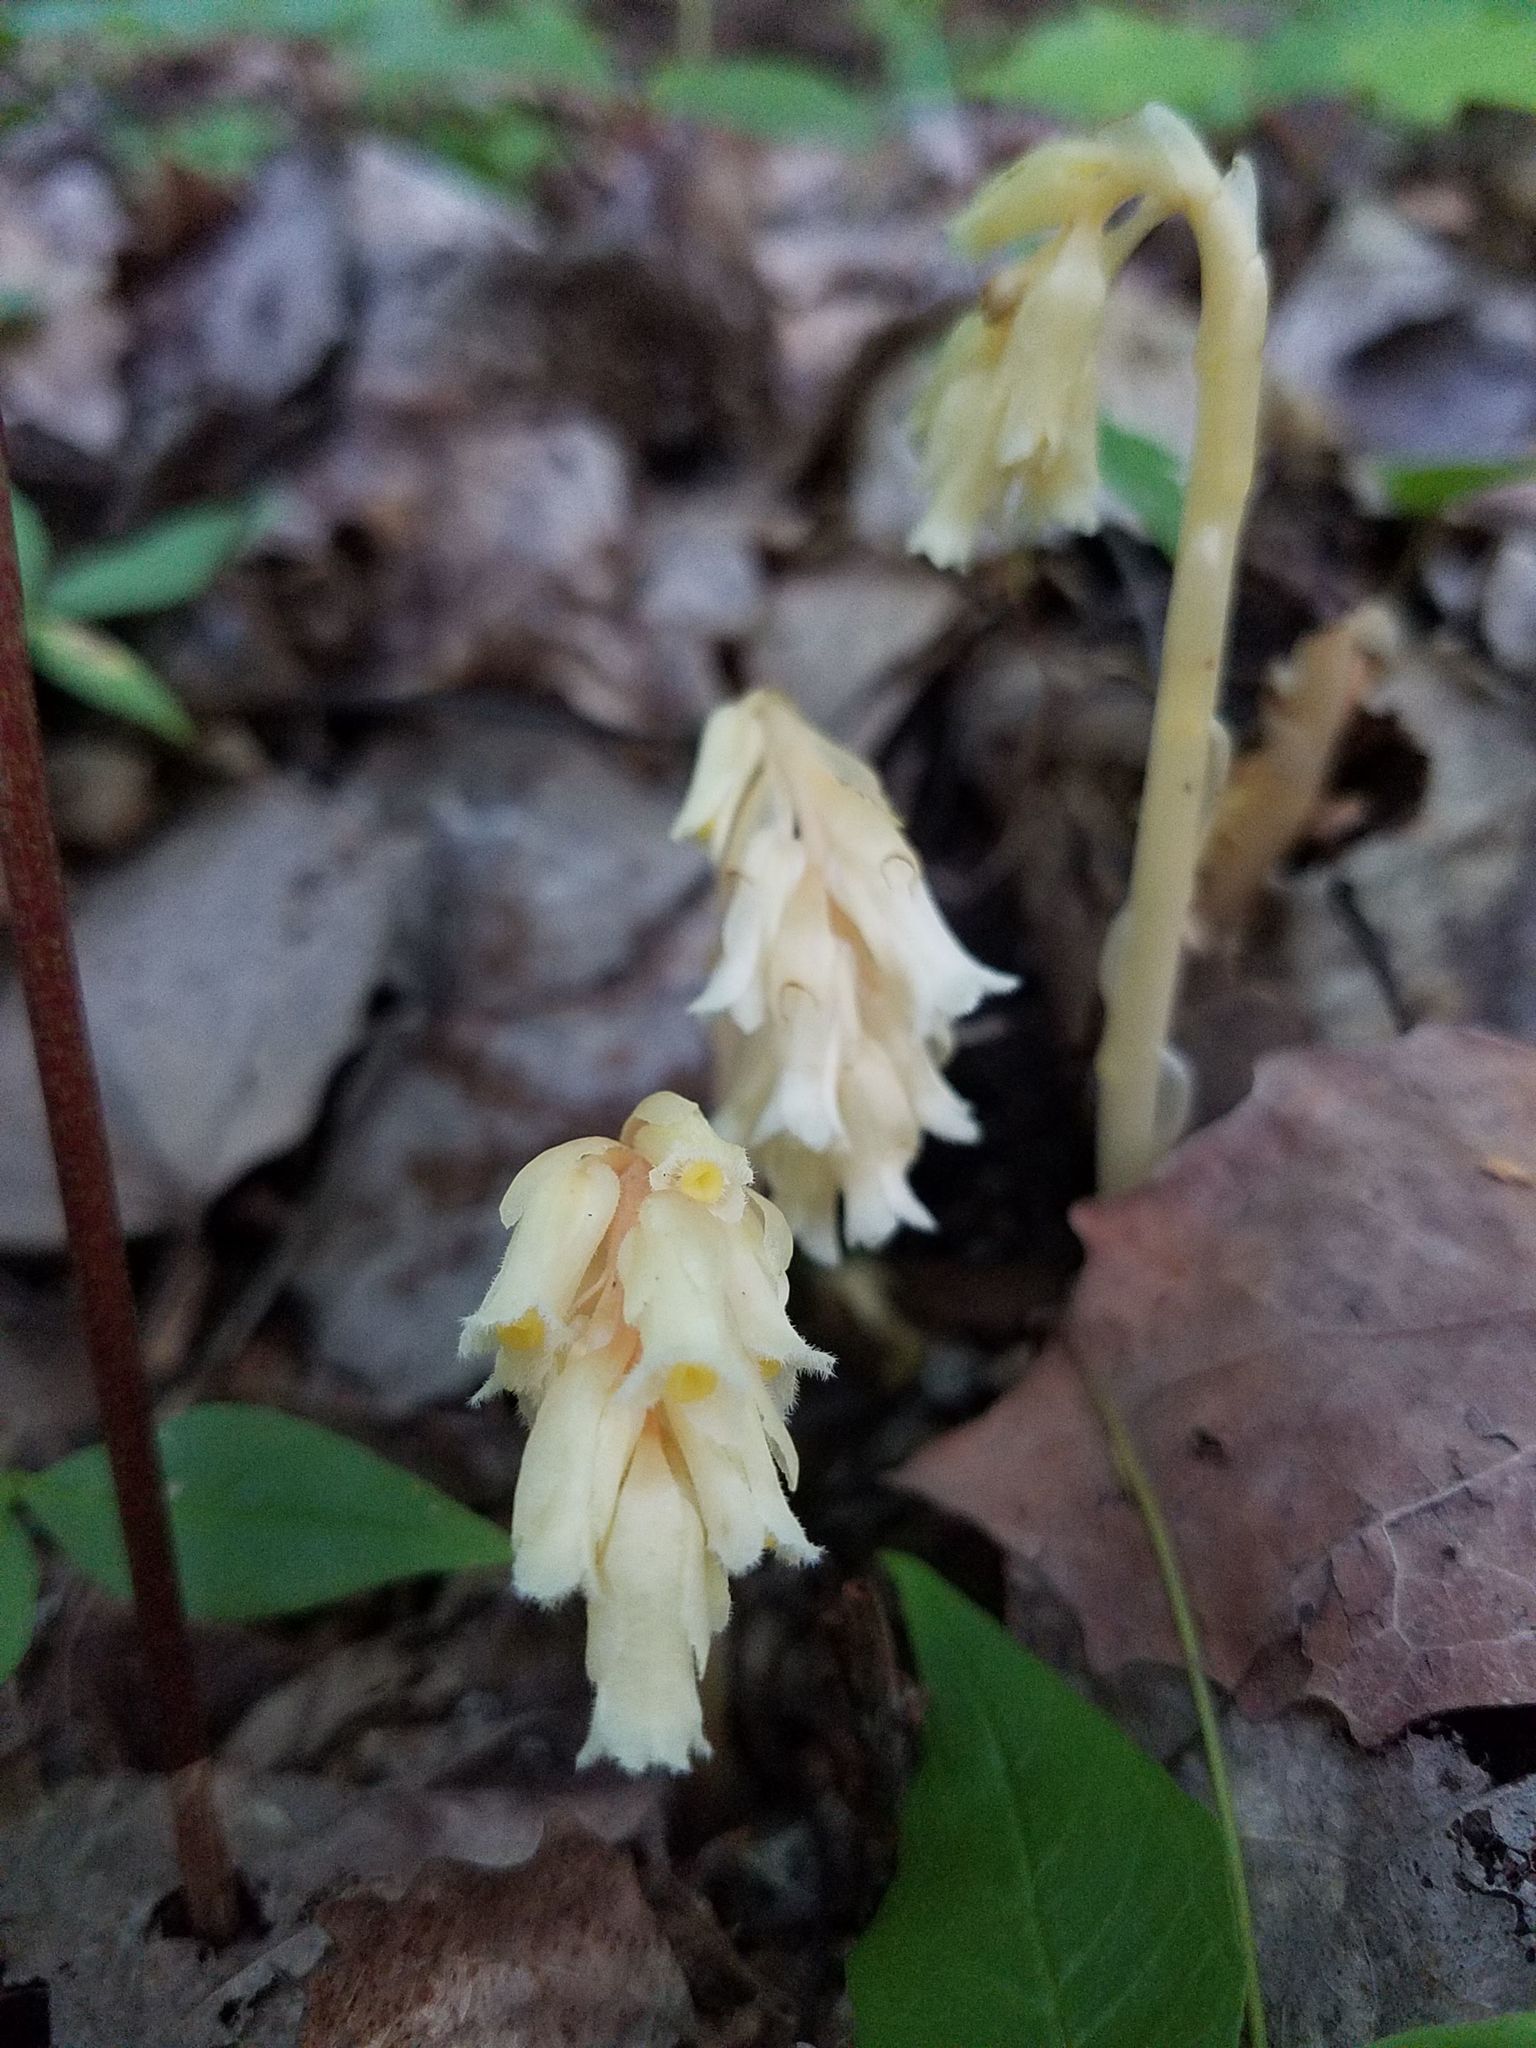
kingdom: Plantae
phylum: Tracheophyta
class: Magnoliopsida
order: Ericales
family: Ericaceae
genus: Hypopitys
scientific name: Hypopitys monotropa
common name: Yellow bird's-nest
